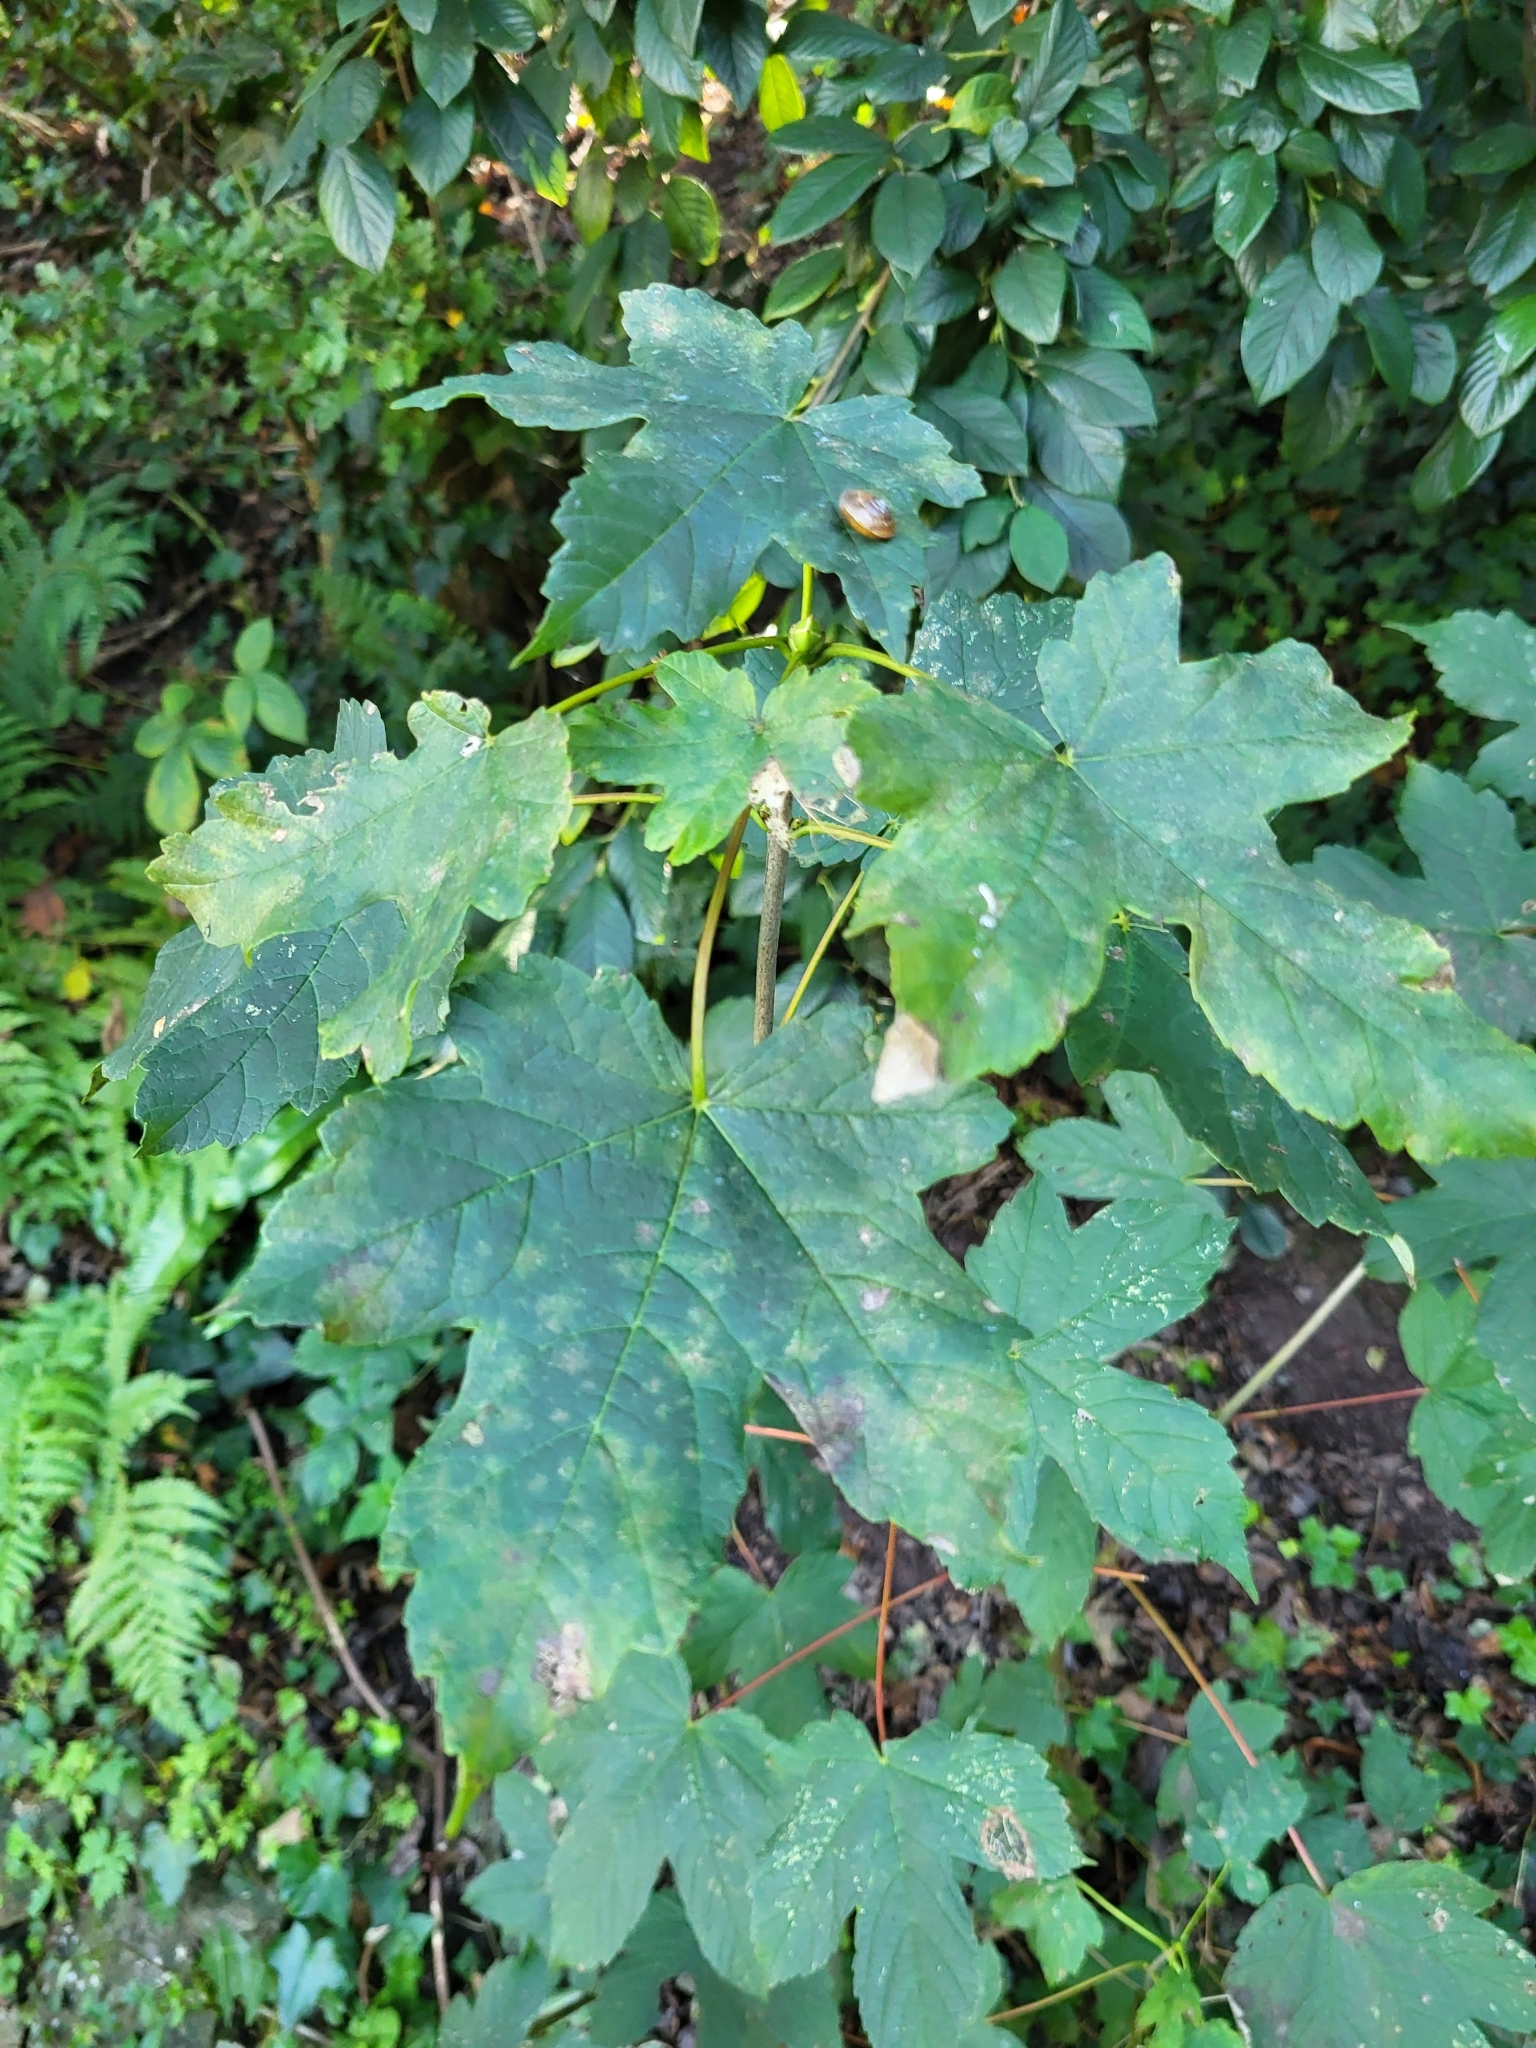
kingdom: Plantae
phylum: Tracheophyta
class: Magnoliopsida
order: Sapindales
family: Sapindaceae
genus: Acer
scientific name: Acer pseudoplatanus
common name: Sycamore
